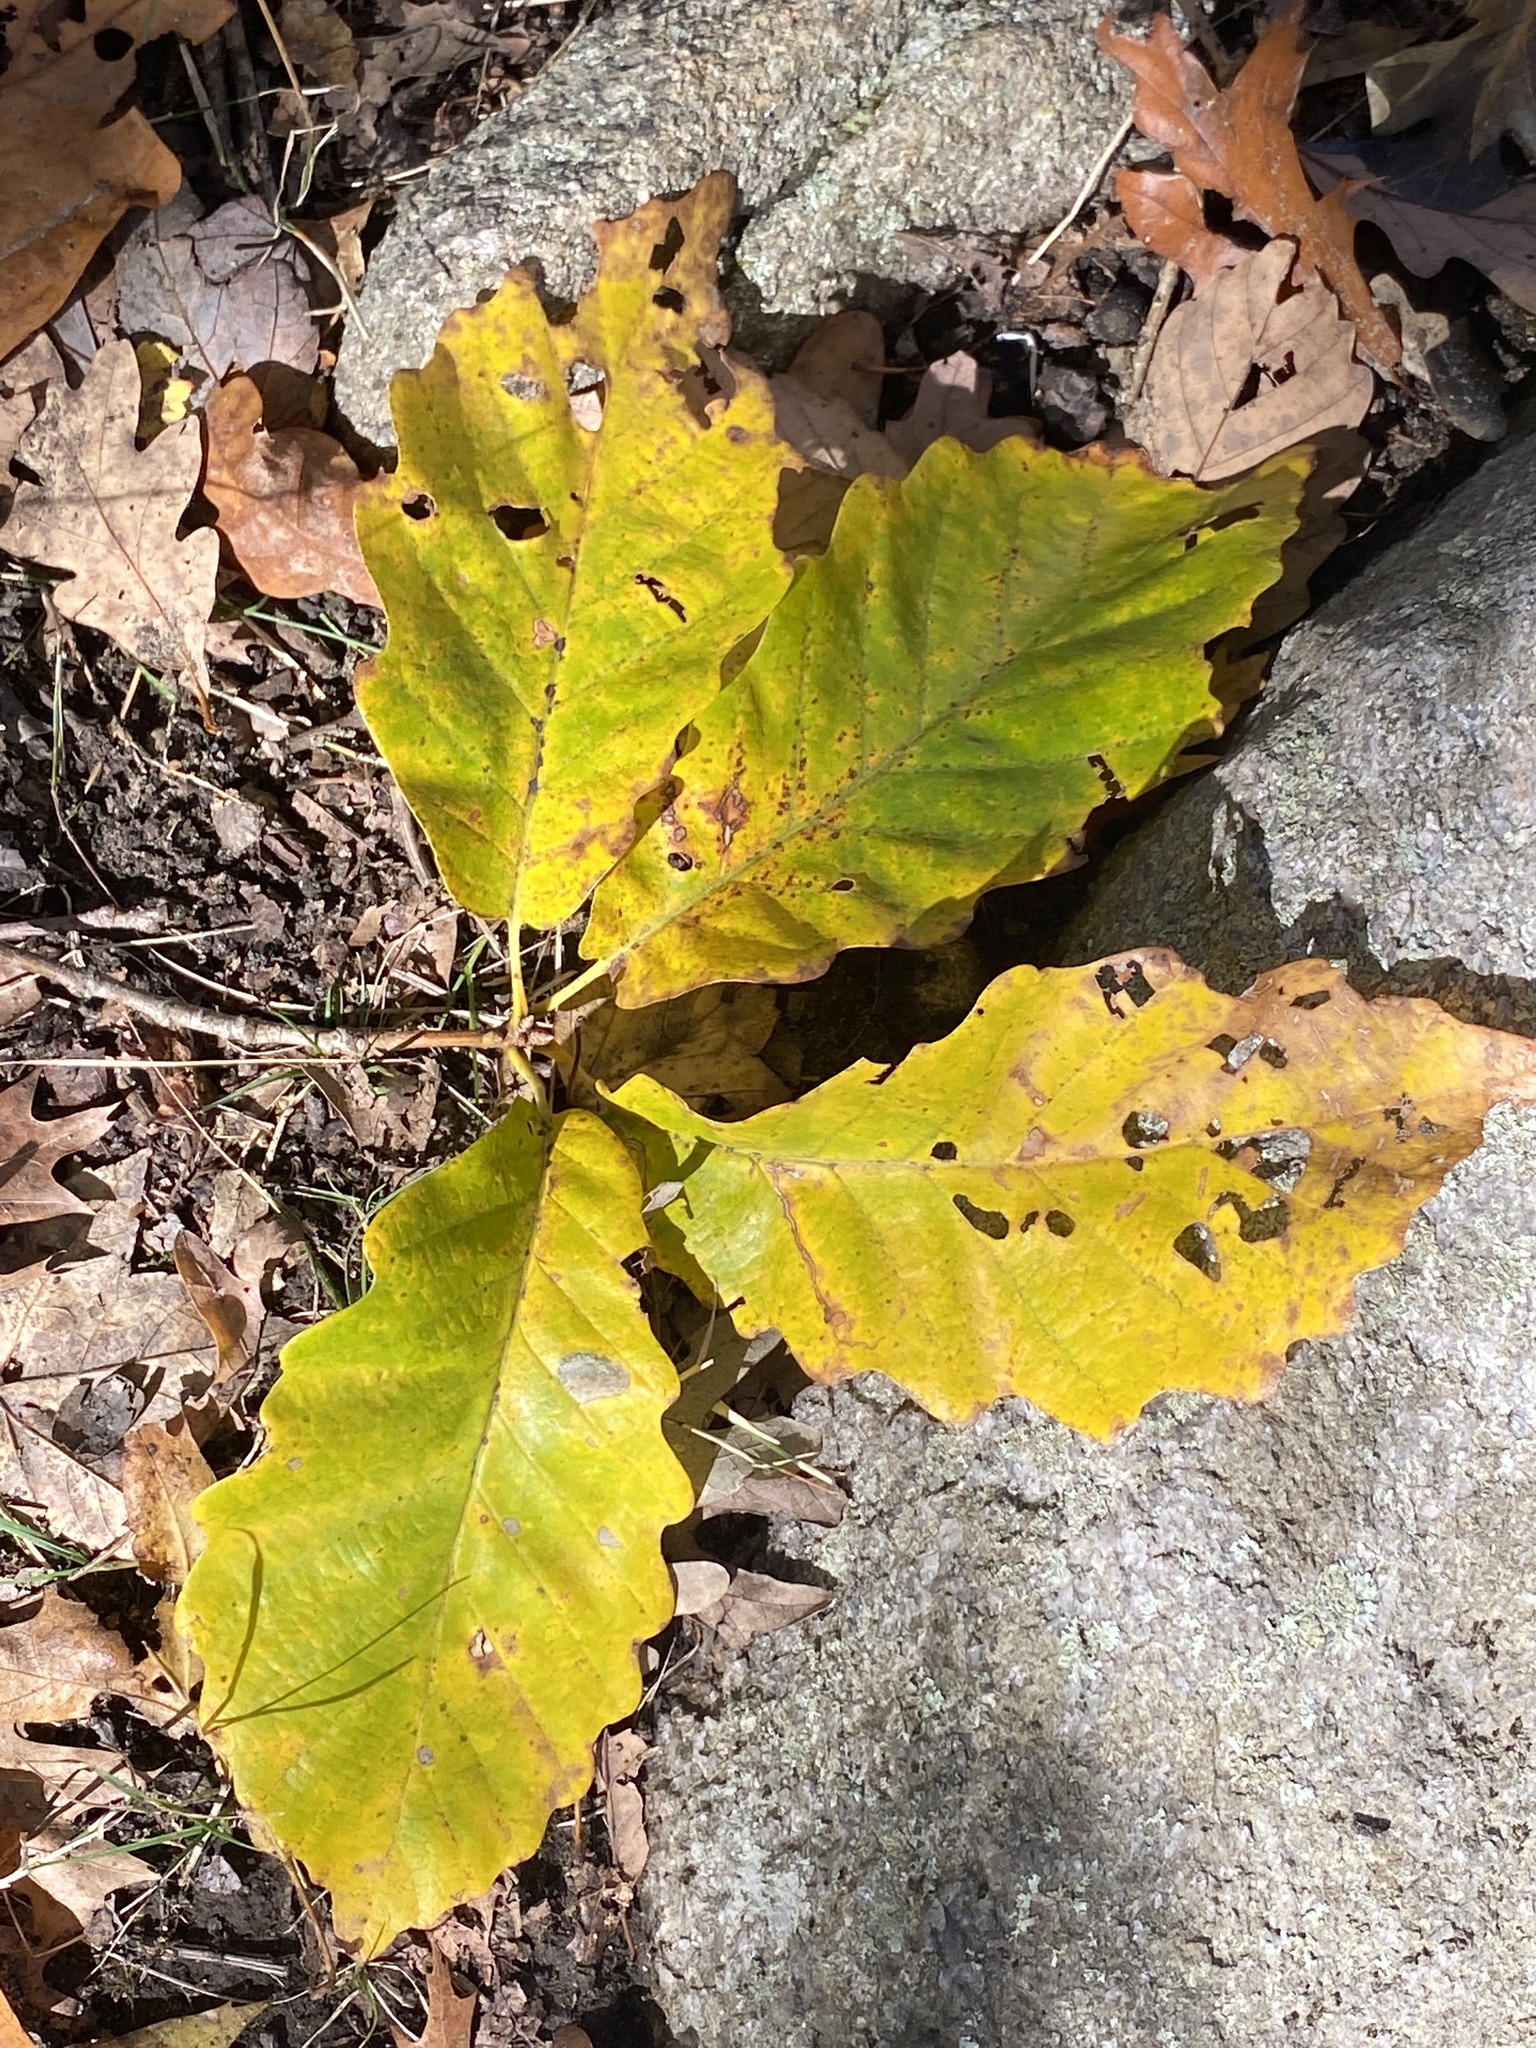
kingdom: Plantae
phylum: Tracheophyta
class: Magnoliopsida
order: Fagales
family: Fagaceae
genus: Quercus
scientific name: Quercus montana
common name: Chestnut oak
